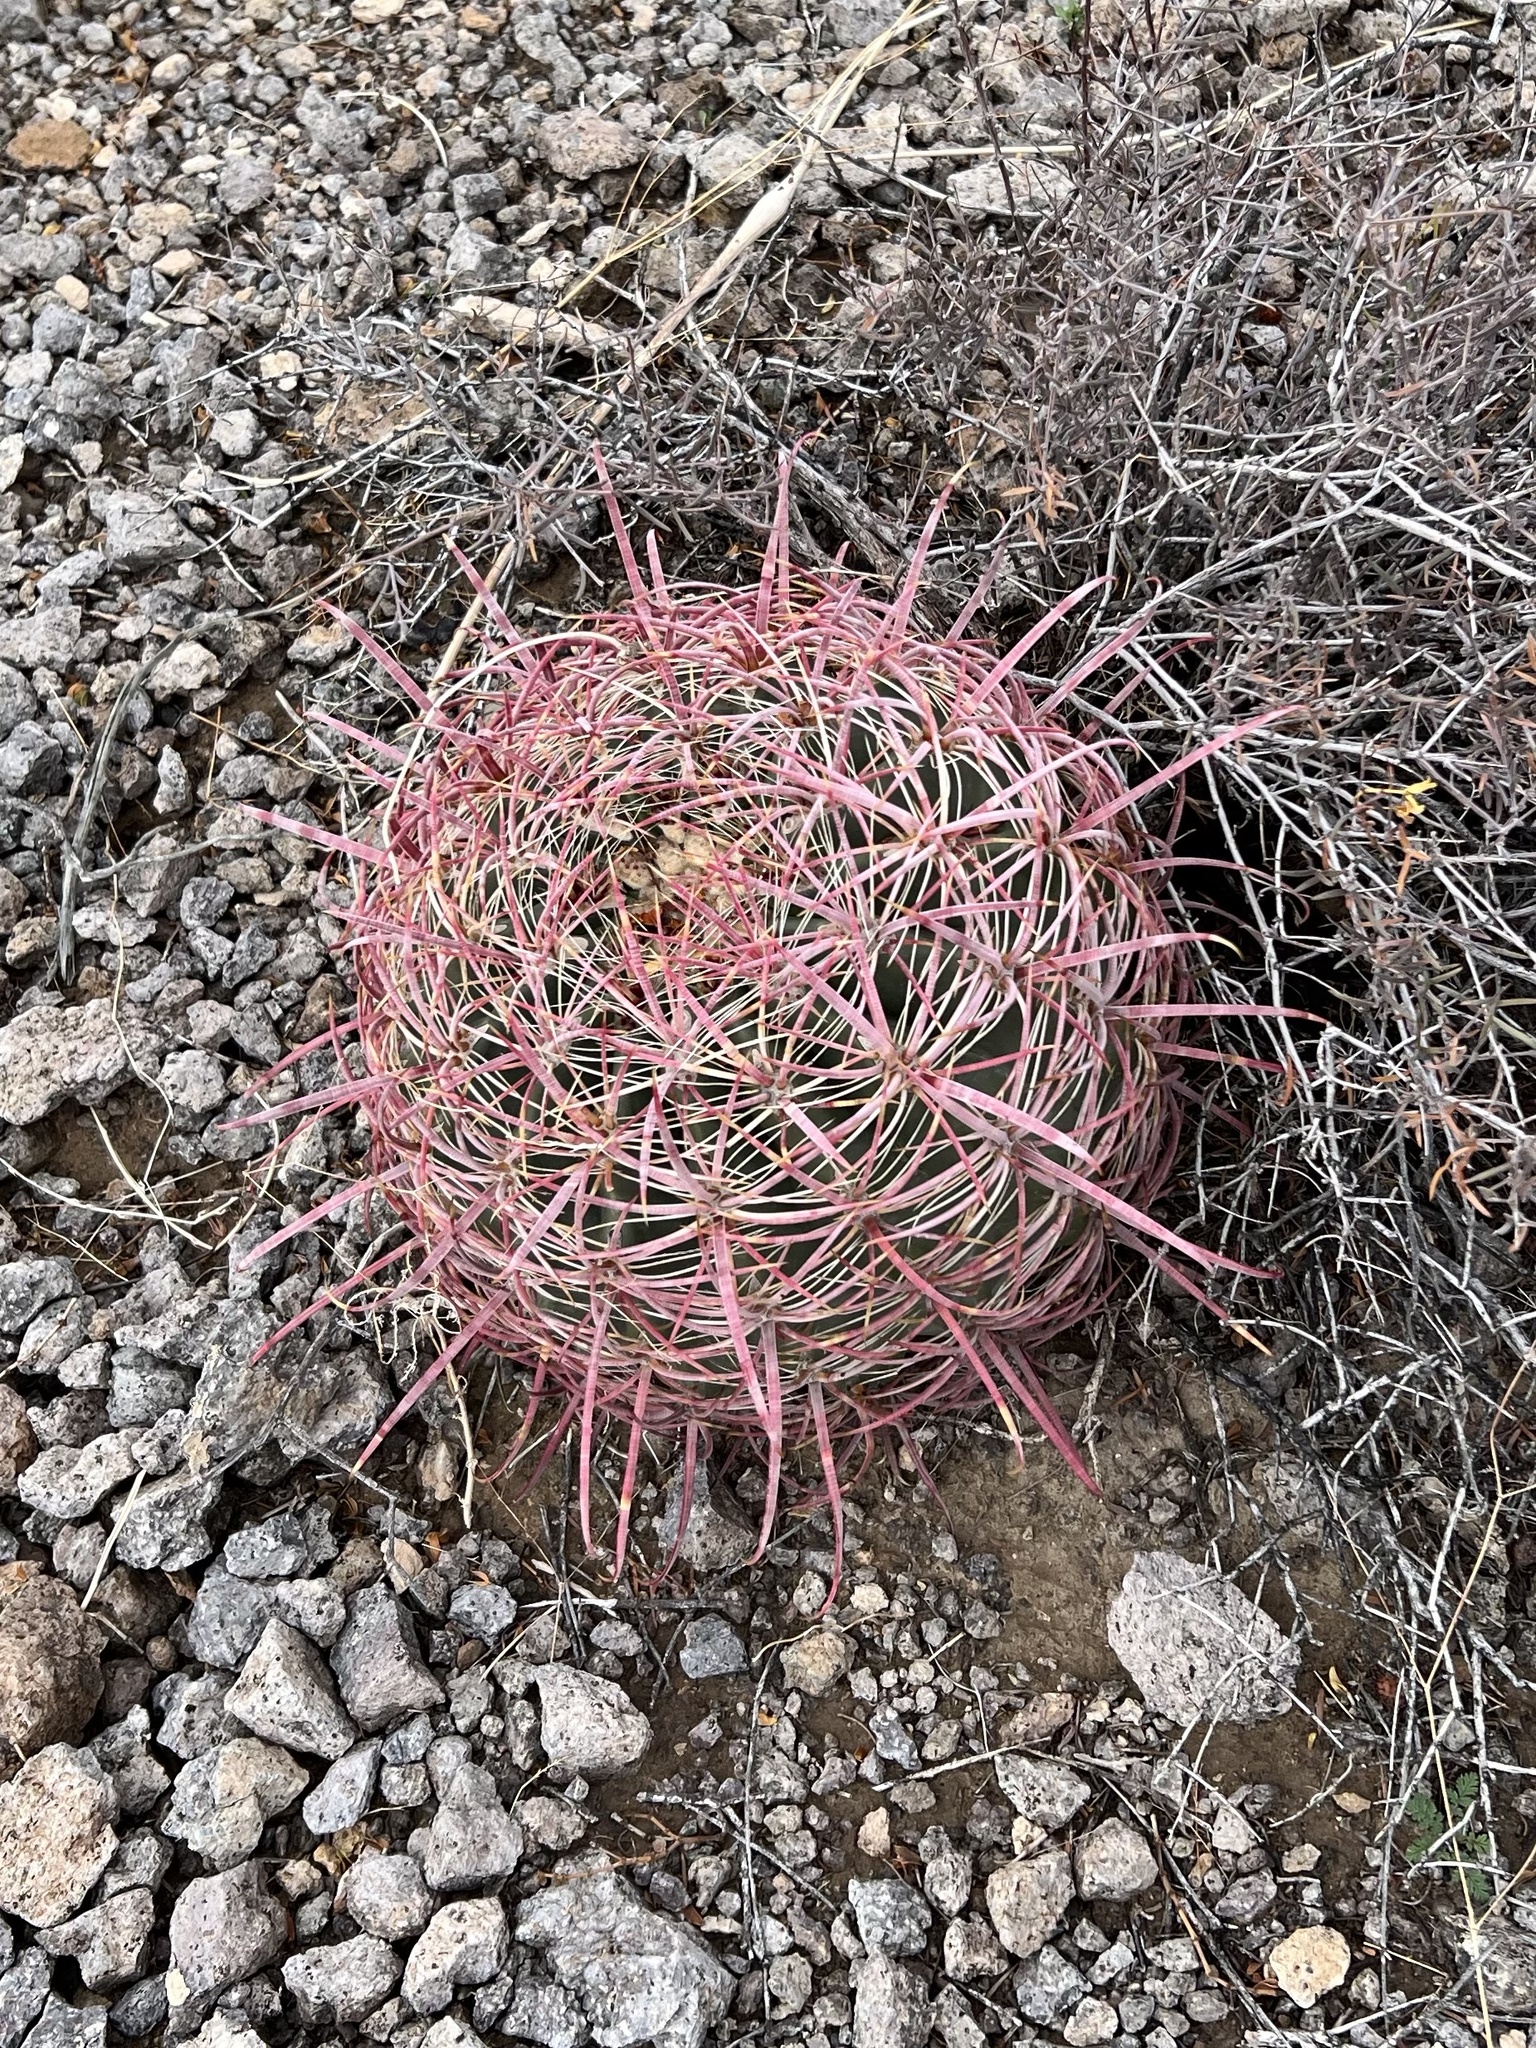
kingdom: Plantae
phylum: Tracheophyta
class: Magnoliopsida
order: Caryophyllales
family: Cactaceae
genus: Ferocactus
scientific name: Ferocactus cylindraceus
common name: California barrel cactus
